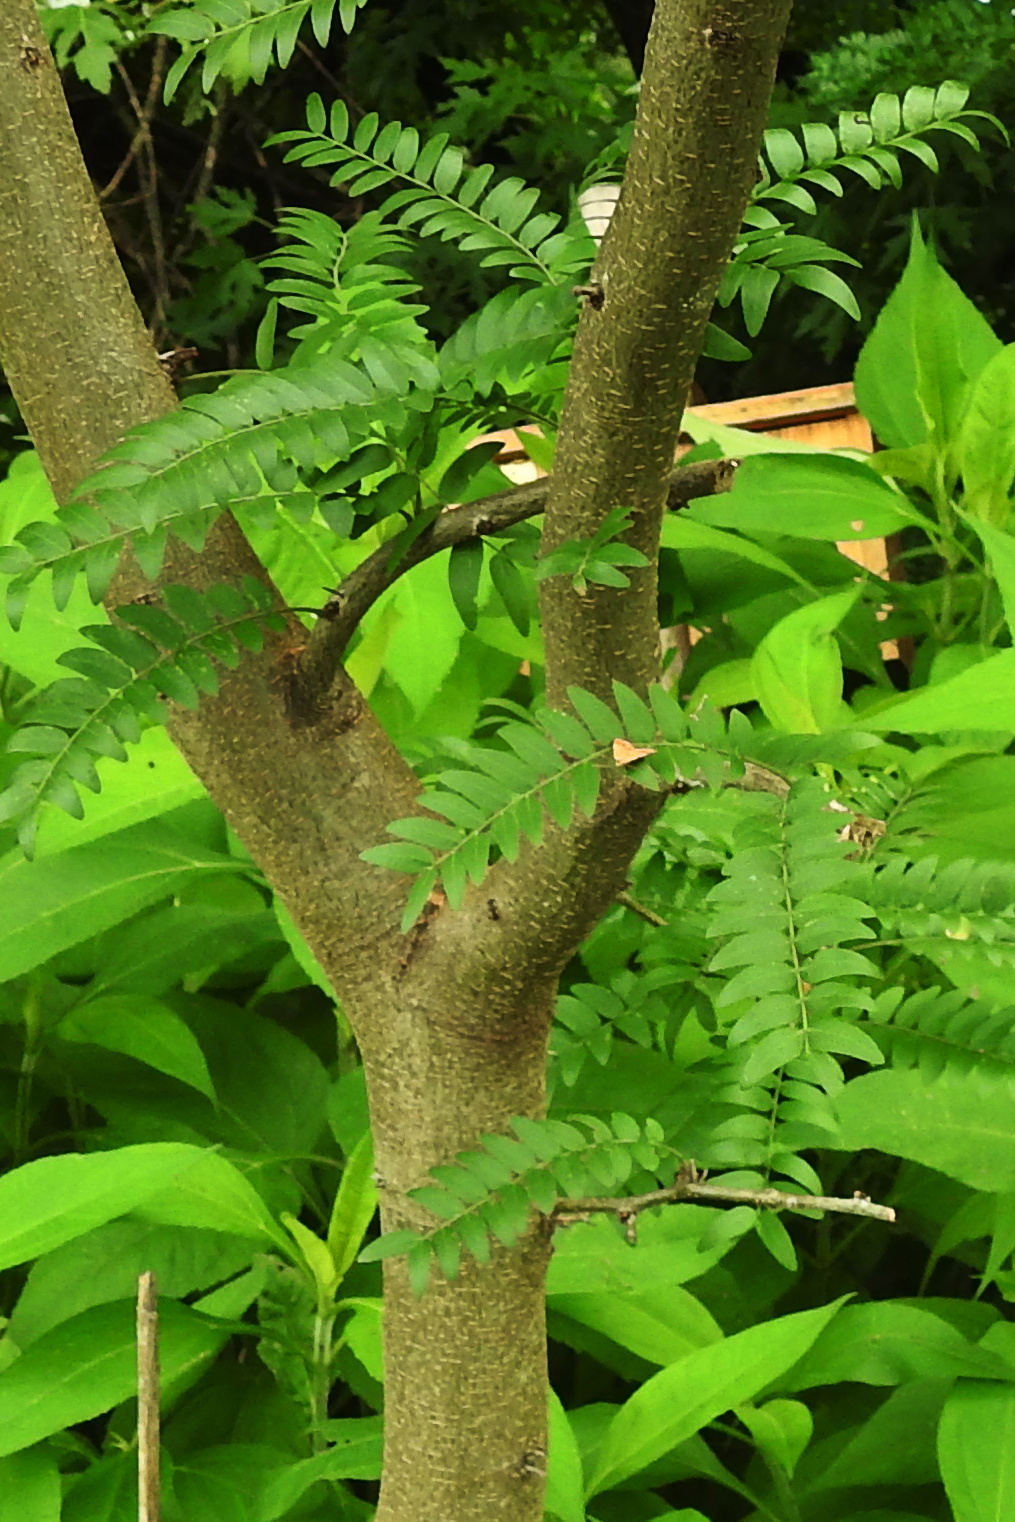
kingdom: Plantae
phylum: Tracheophyta
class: Magnoliopsida
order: Fabales
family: Fabaceae
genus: Gleditsia
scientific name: Gleditsia triacanthos
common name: Common honeylocust
